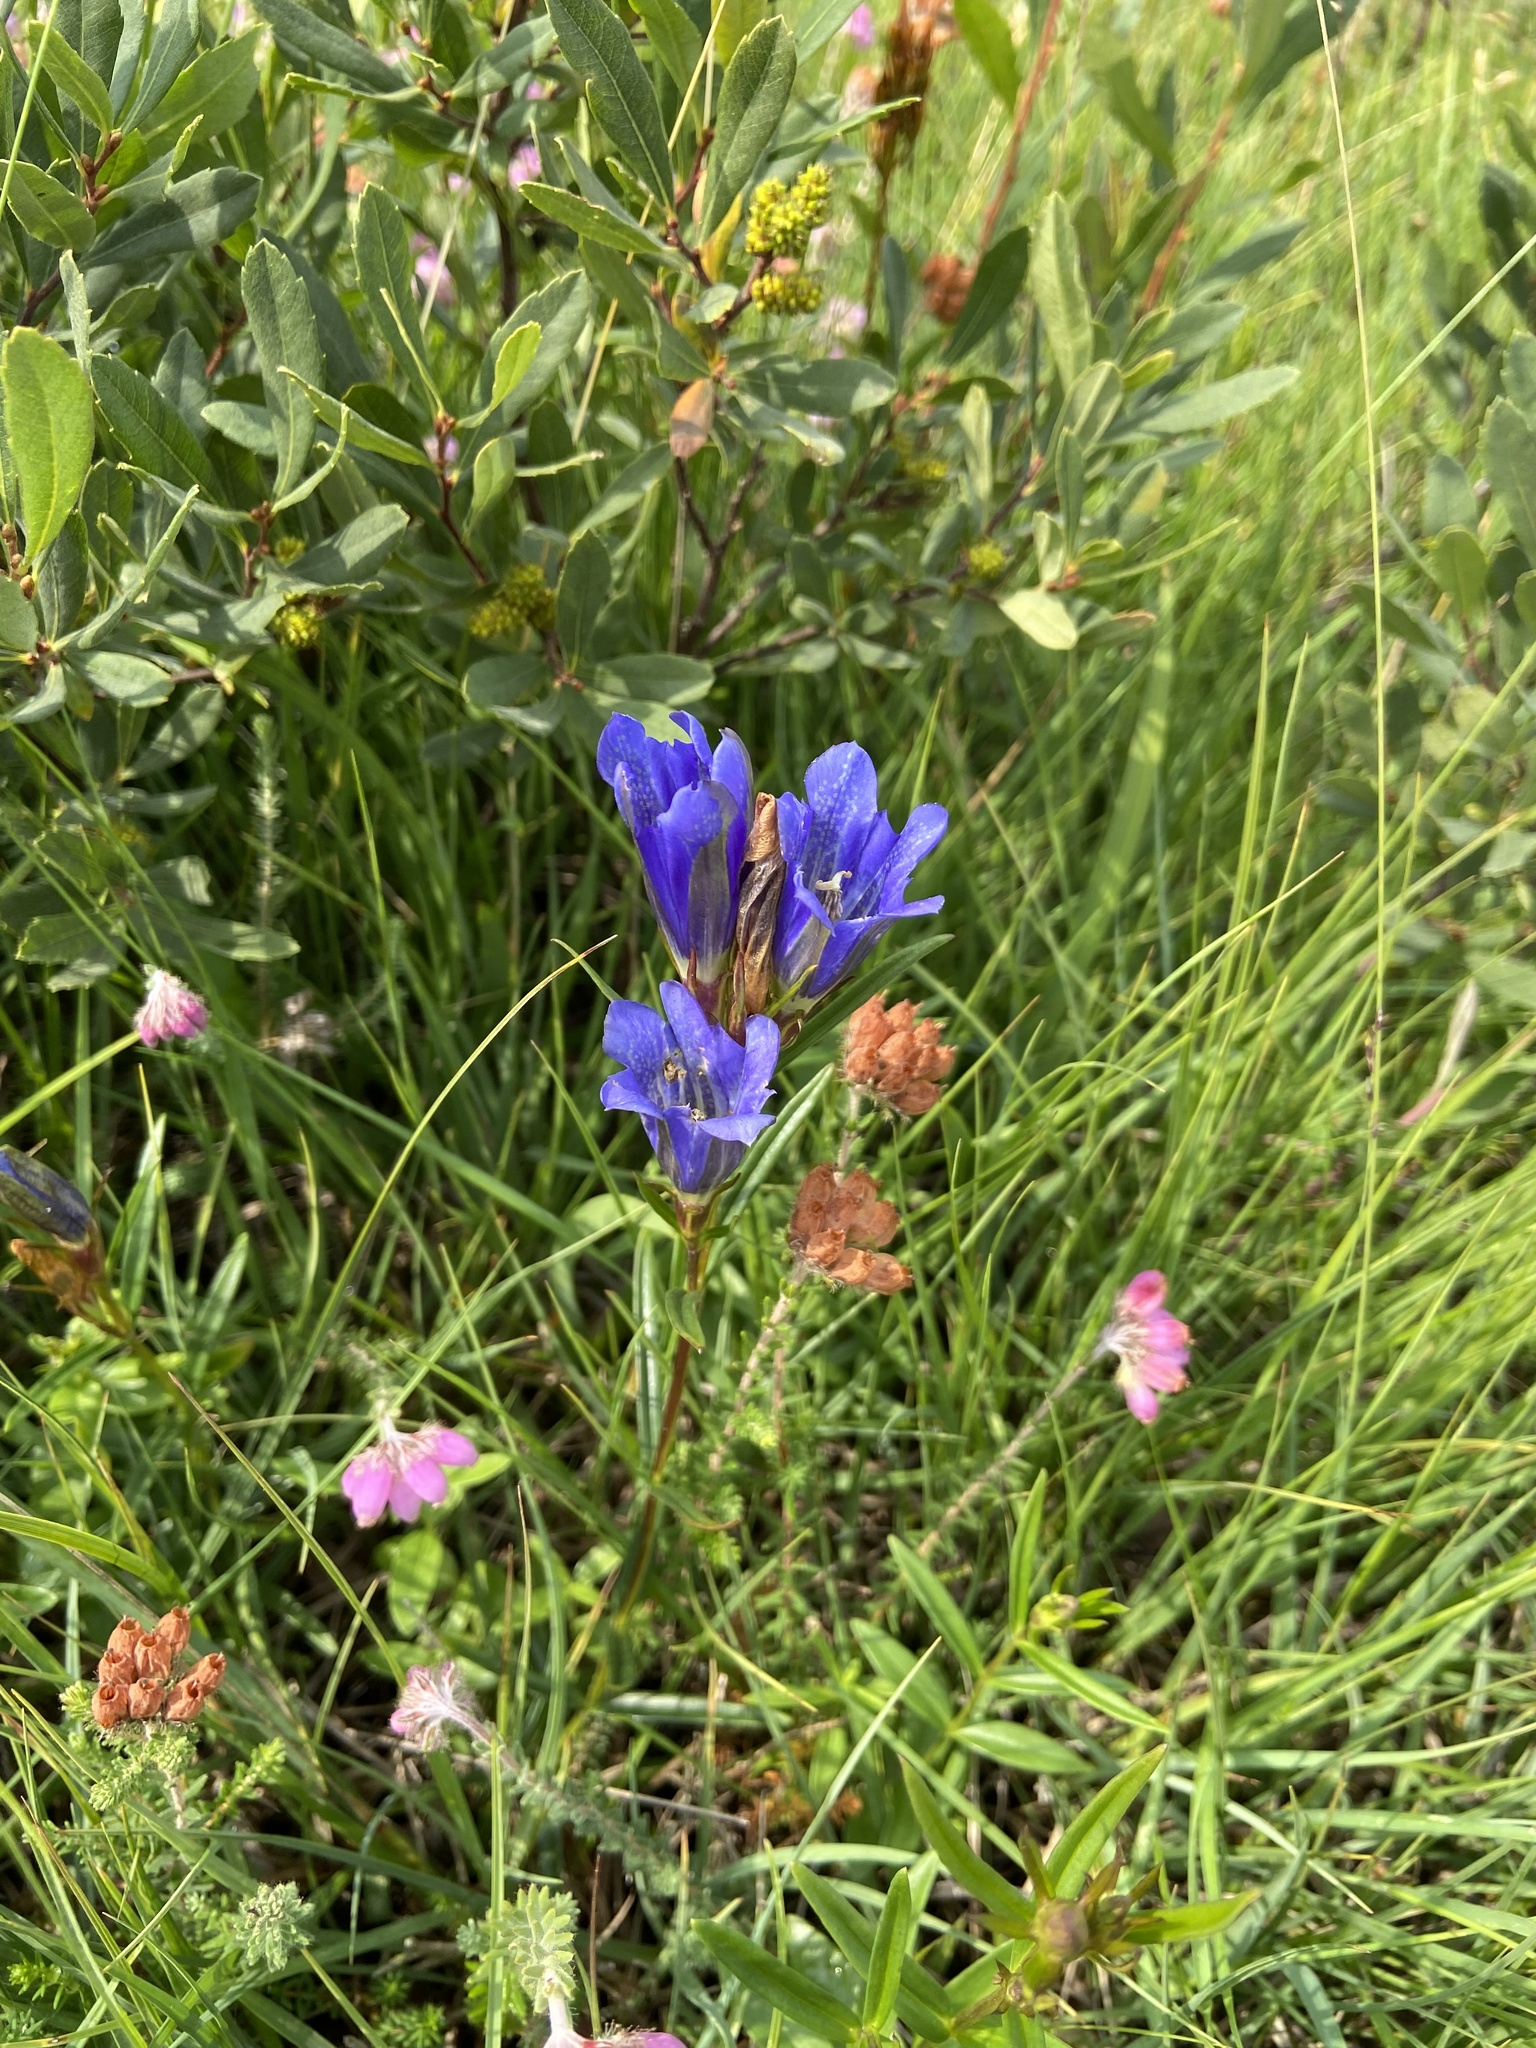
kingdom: Plantae
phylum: Tracheophyta
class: Magnoliopsida
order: Gentianales
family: Gentianaceae
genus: Gentiana
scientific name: Gentiana pneumonanthe
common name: Marsh gentian
